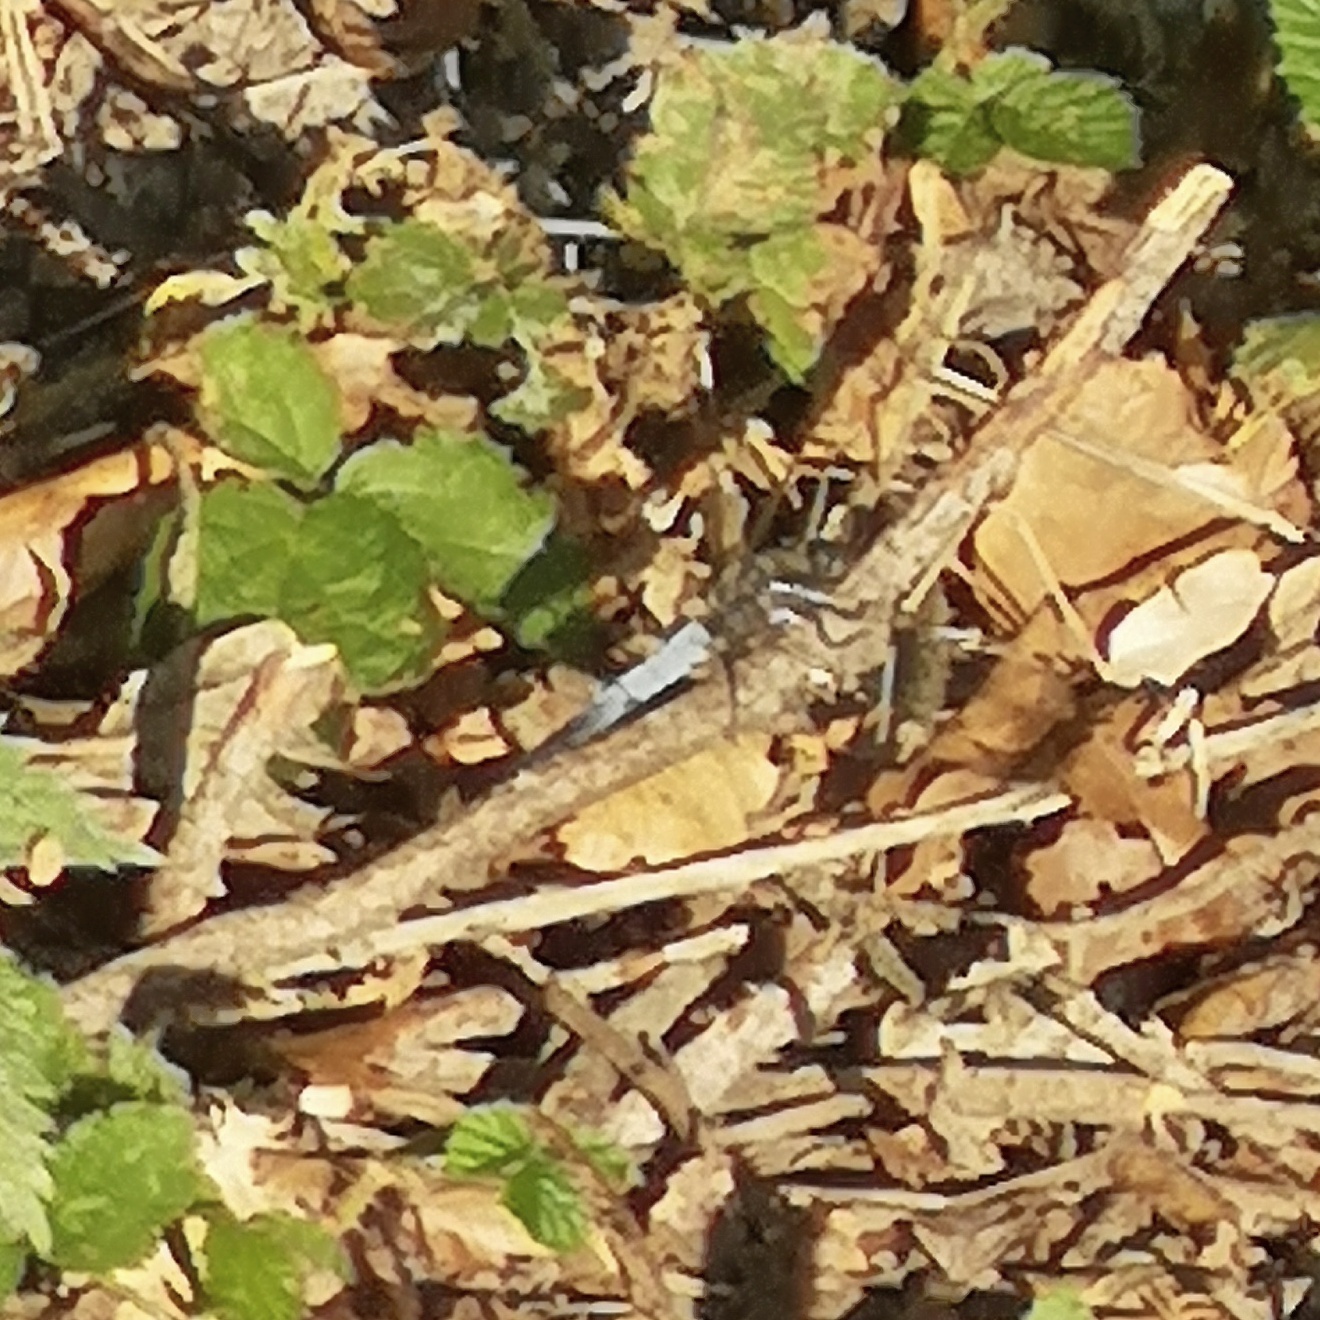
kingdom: Animalia
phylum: Arthropoda
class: Insecta
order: Odonata
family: Libellulidae
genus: Orthetrum
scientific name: Orthetrum cancellatum
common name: Black-tailed skimmer
